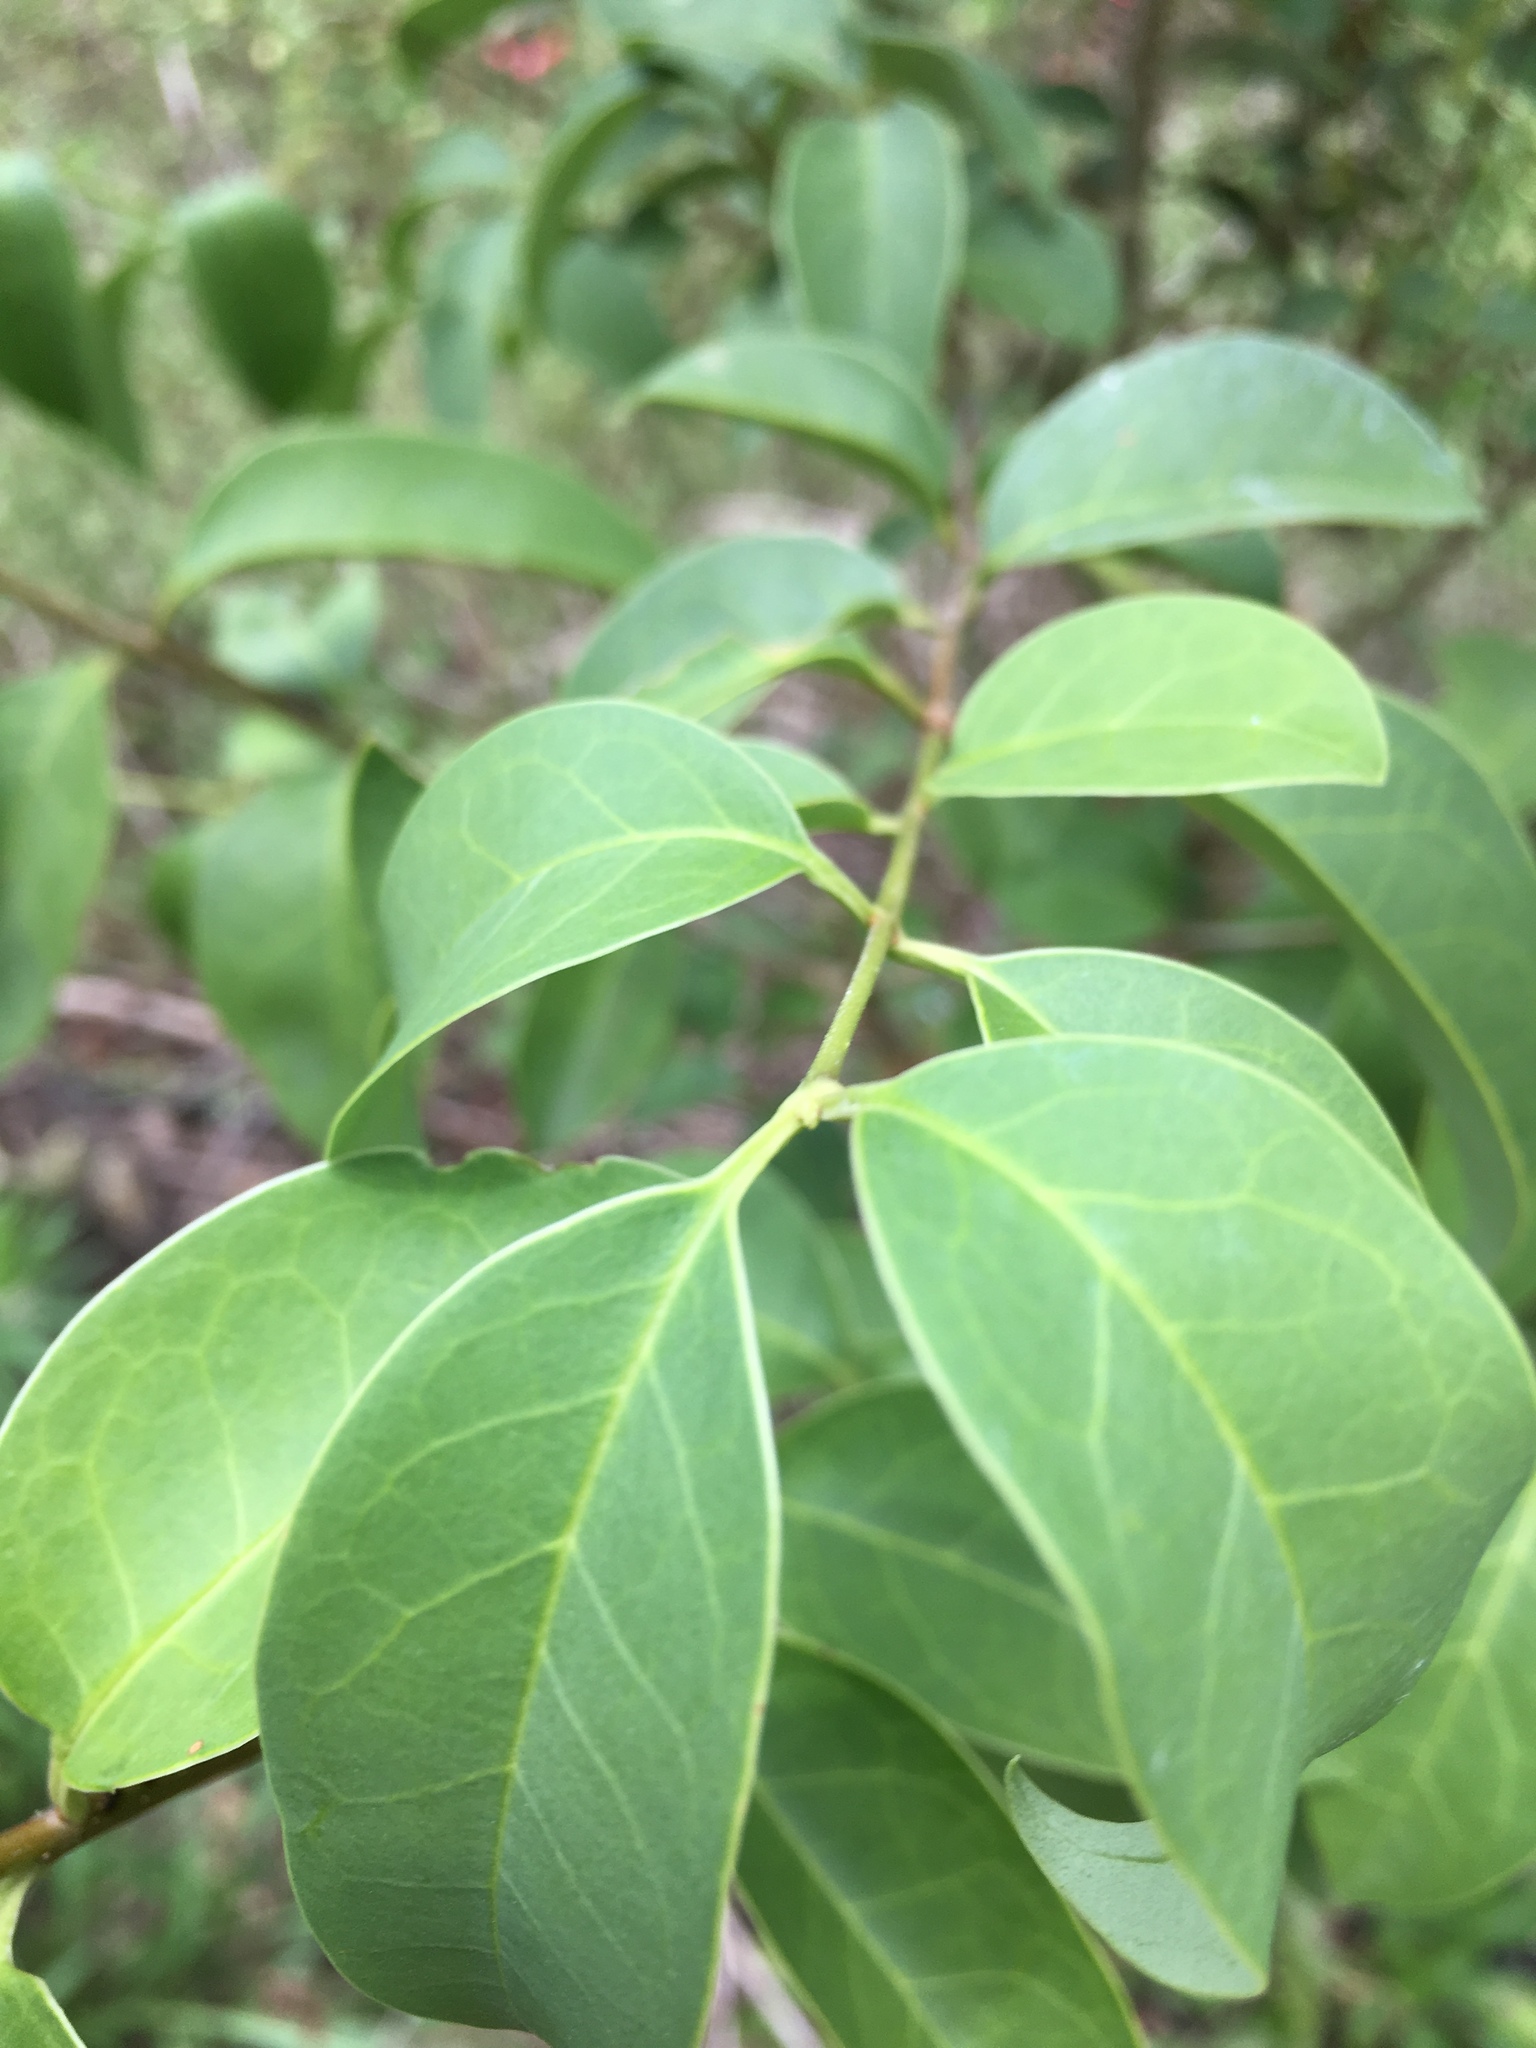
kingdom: Plantae
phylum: Tracheophyta
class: Magnoliopsida
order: Lamiales
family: Oleaceae
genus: Ligustrum
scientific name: Ligustrum lucidum
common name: Glossy privet
